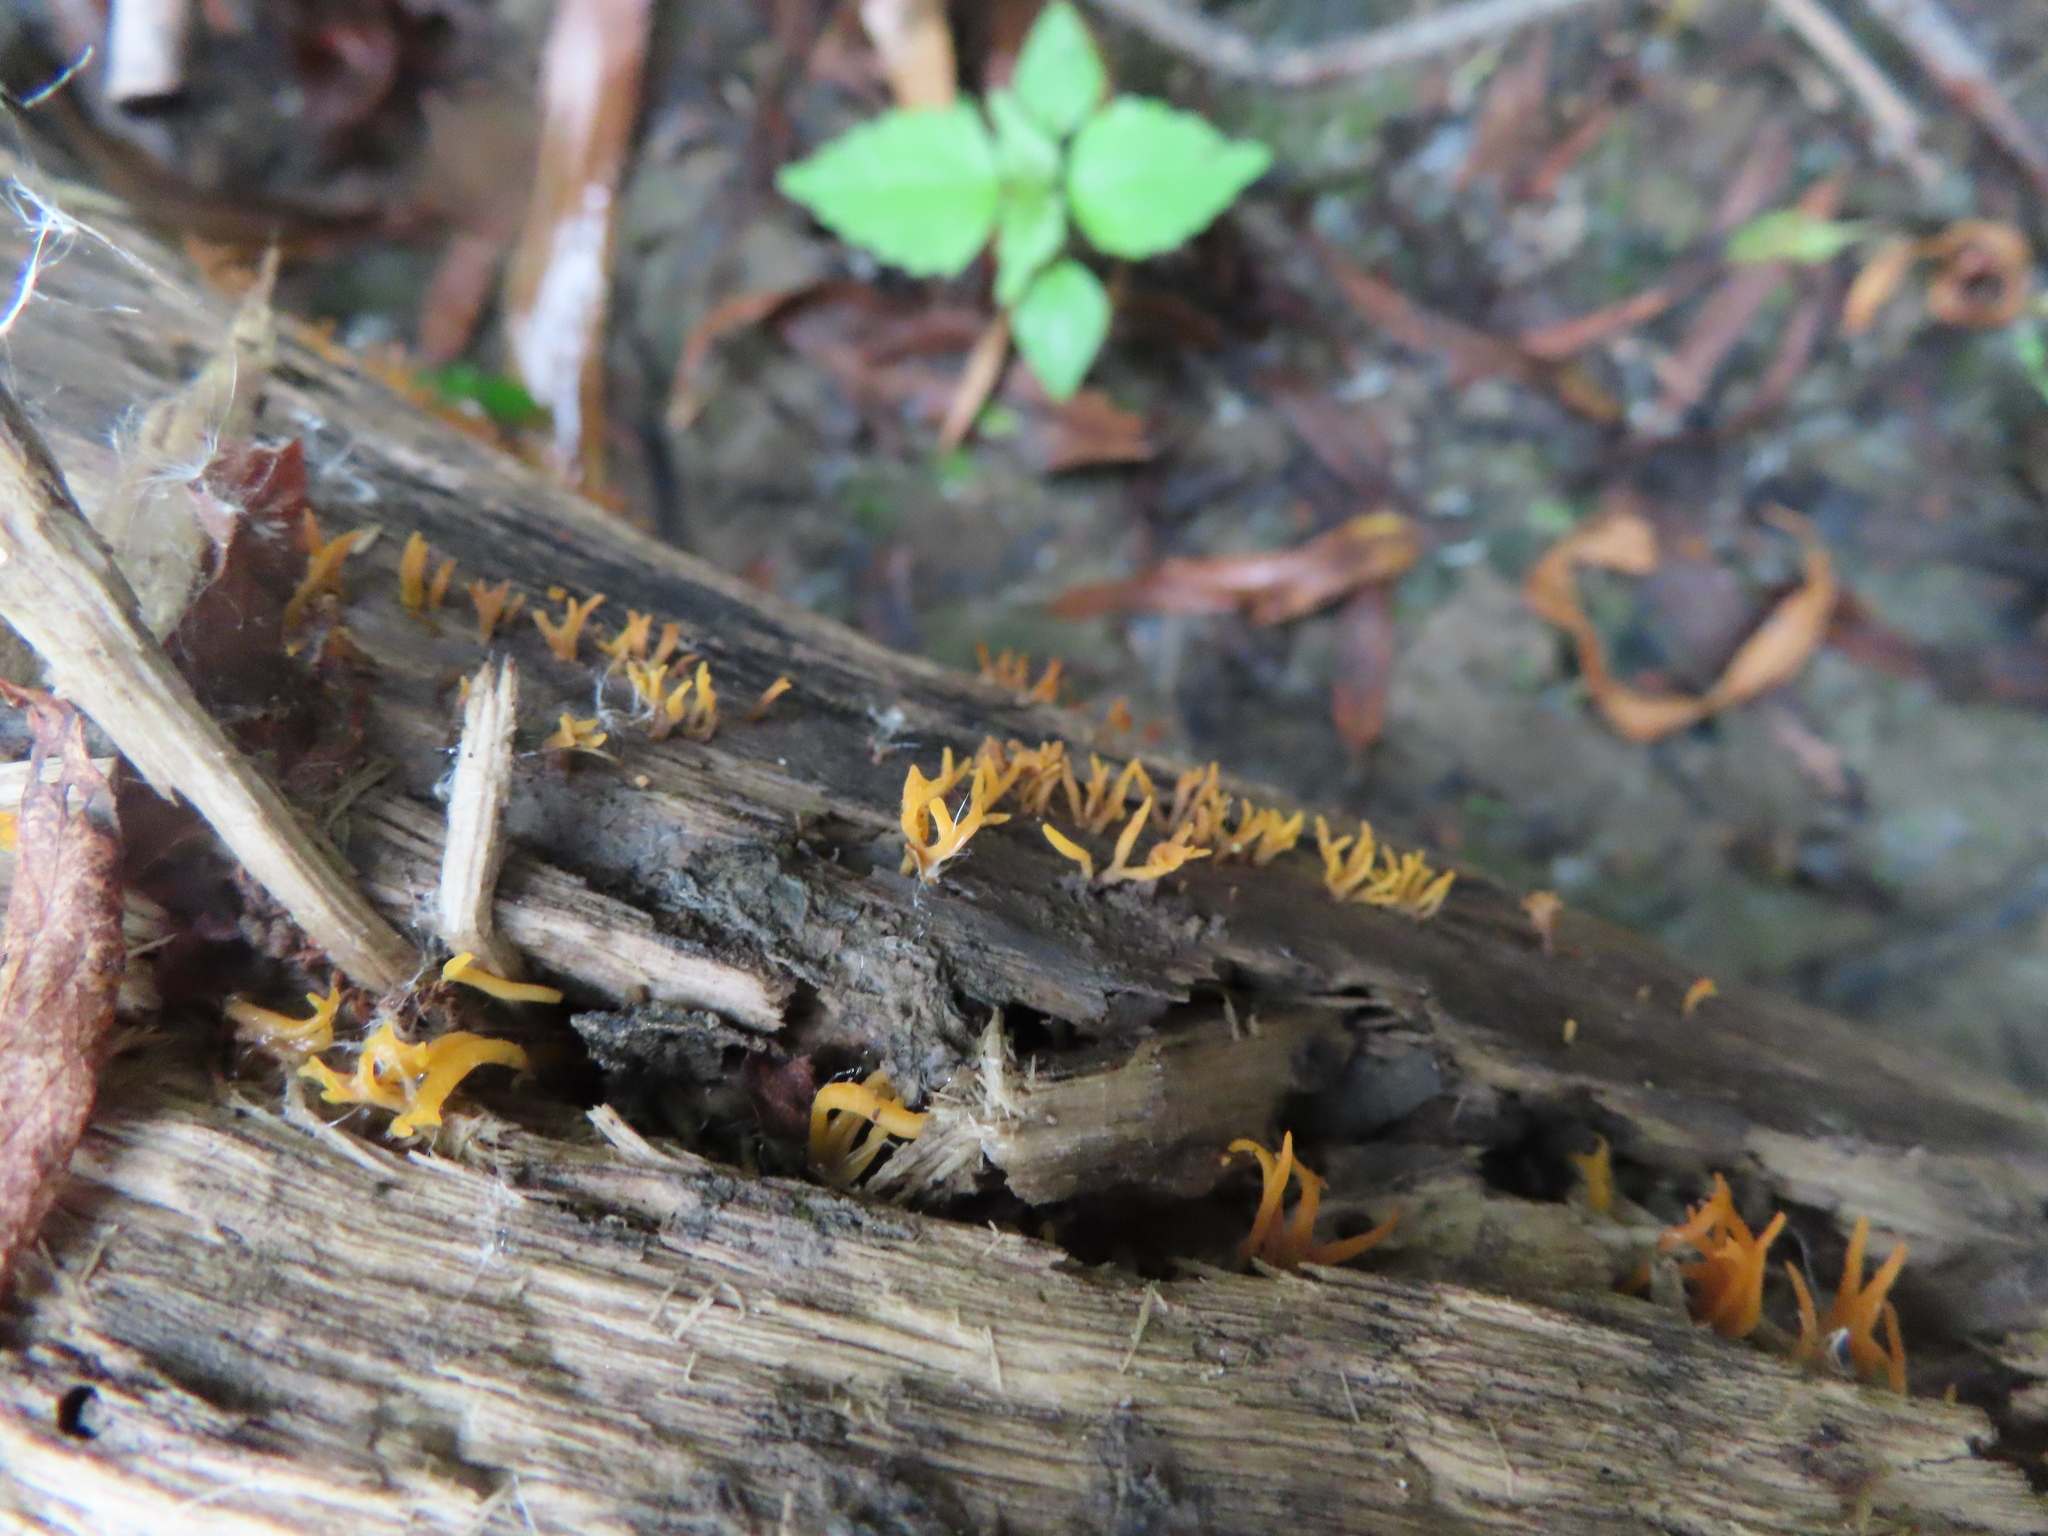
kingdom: Fungi
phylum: Basidiomycota
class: Dacrymycetes
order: Dacrymycetales
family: Dacrymycetaceae
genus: Calocera
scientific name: Calocera cornea
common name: Small stagshorn
